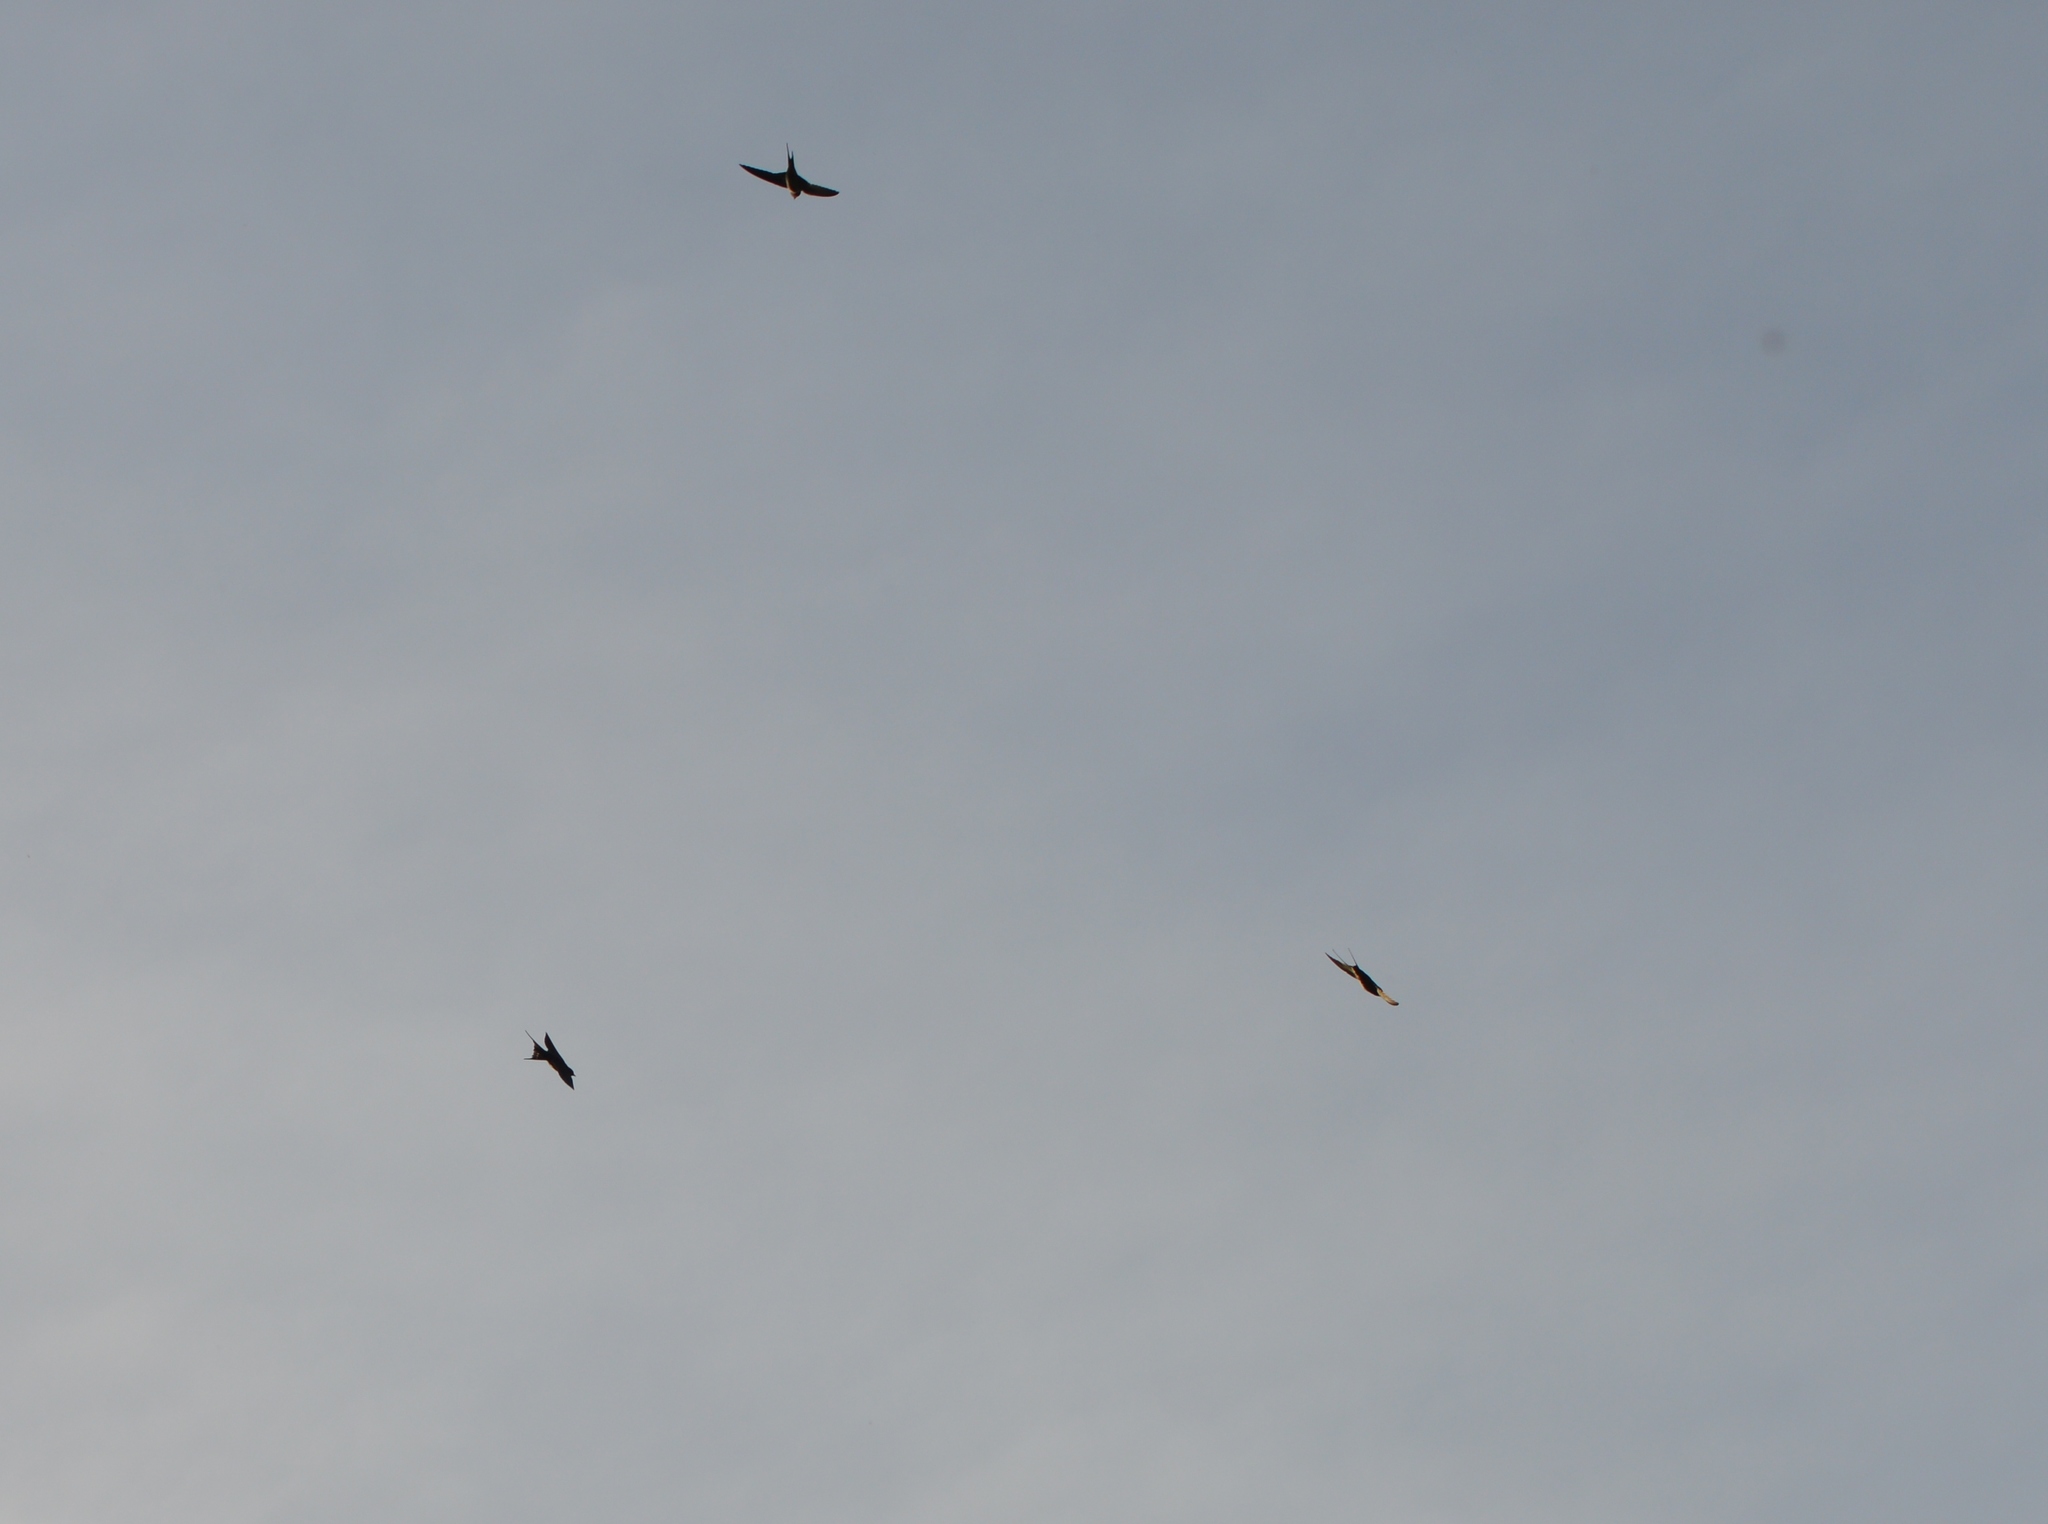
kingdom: Animalia
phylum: Chordata
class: Aves
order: Passeriformes
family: Hirundinidae
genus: Hirundo
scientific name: Hirundo rustica
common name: Barn swallow
